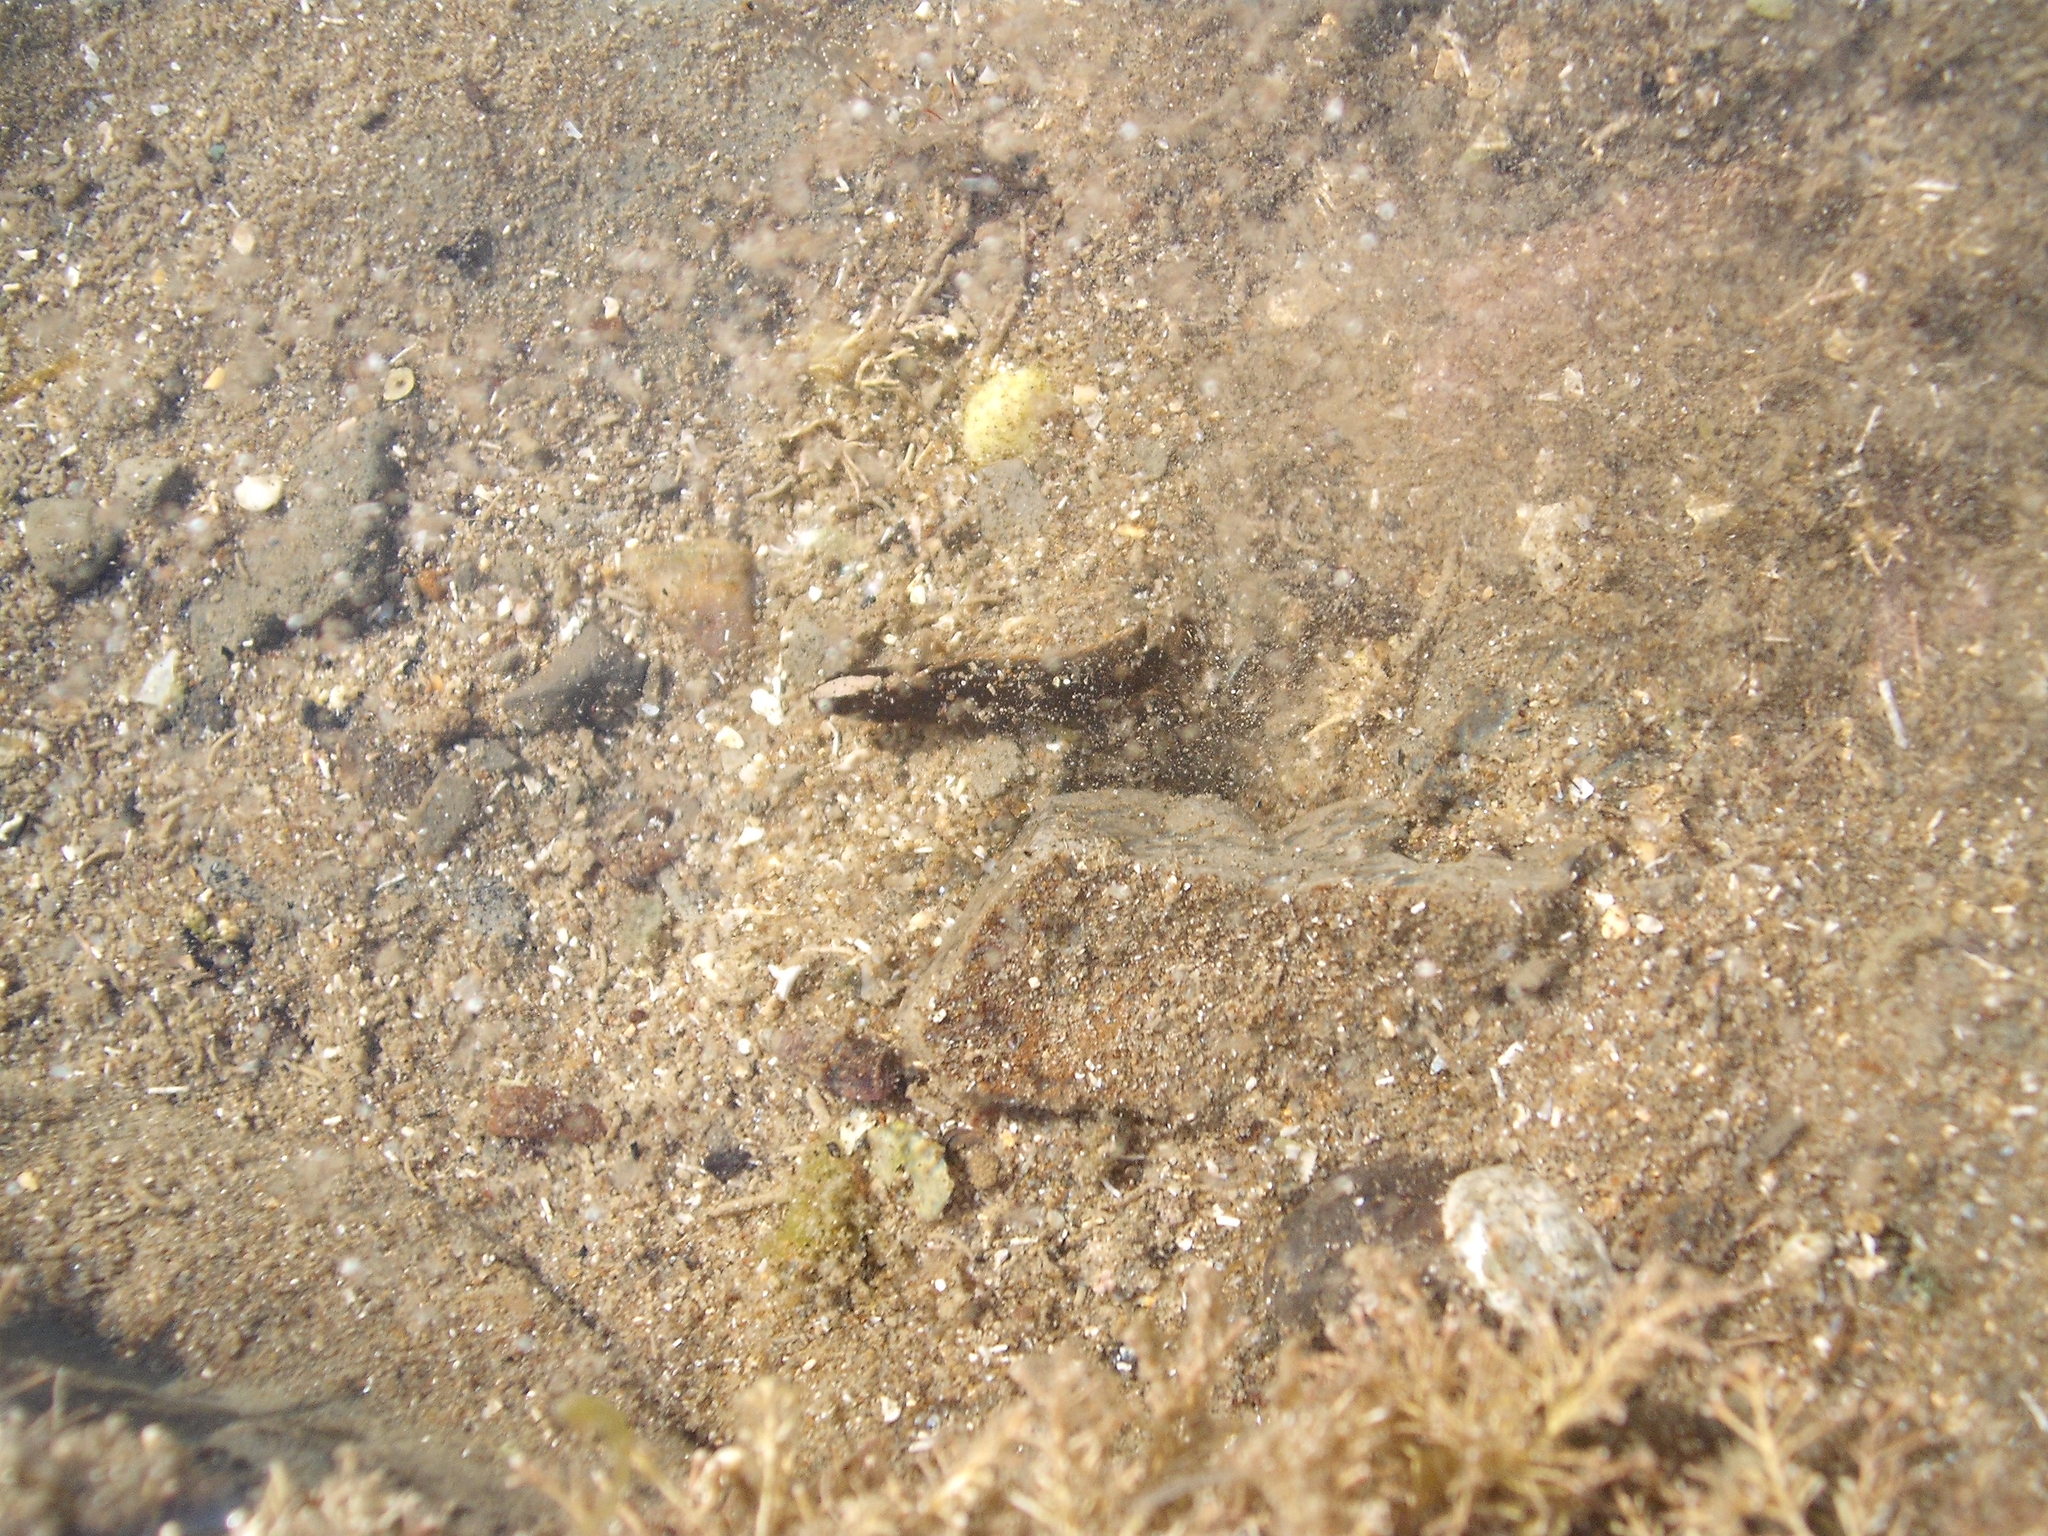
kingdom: Animalia
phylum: Chordata
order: Perciformes
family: Plesiopidae
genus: Acanthoclinus
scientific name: Acanthoclinus fuscus
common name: Olive rockfish
